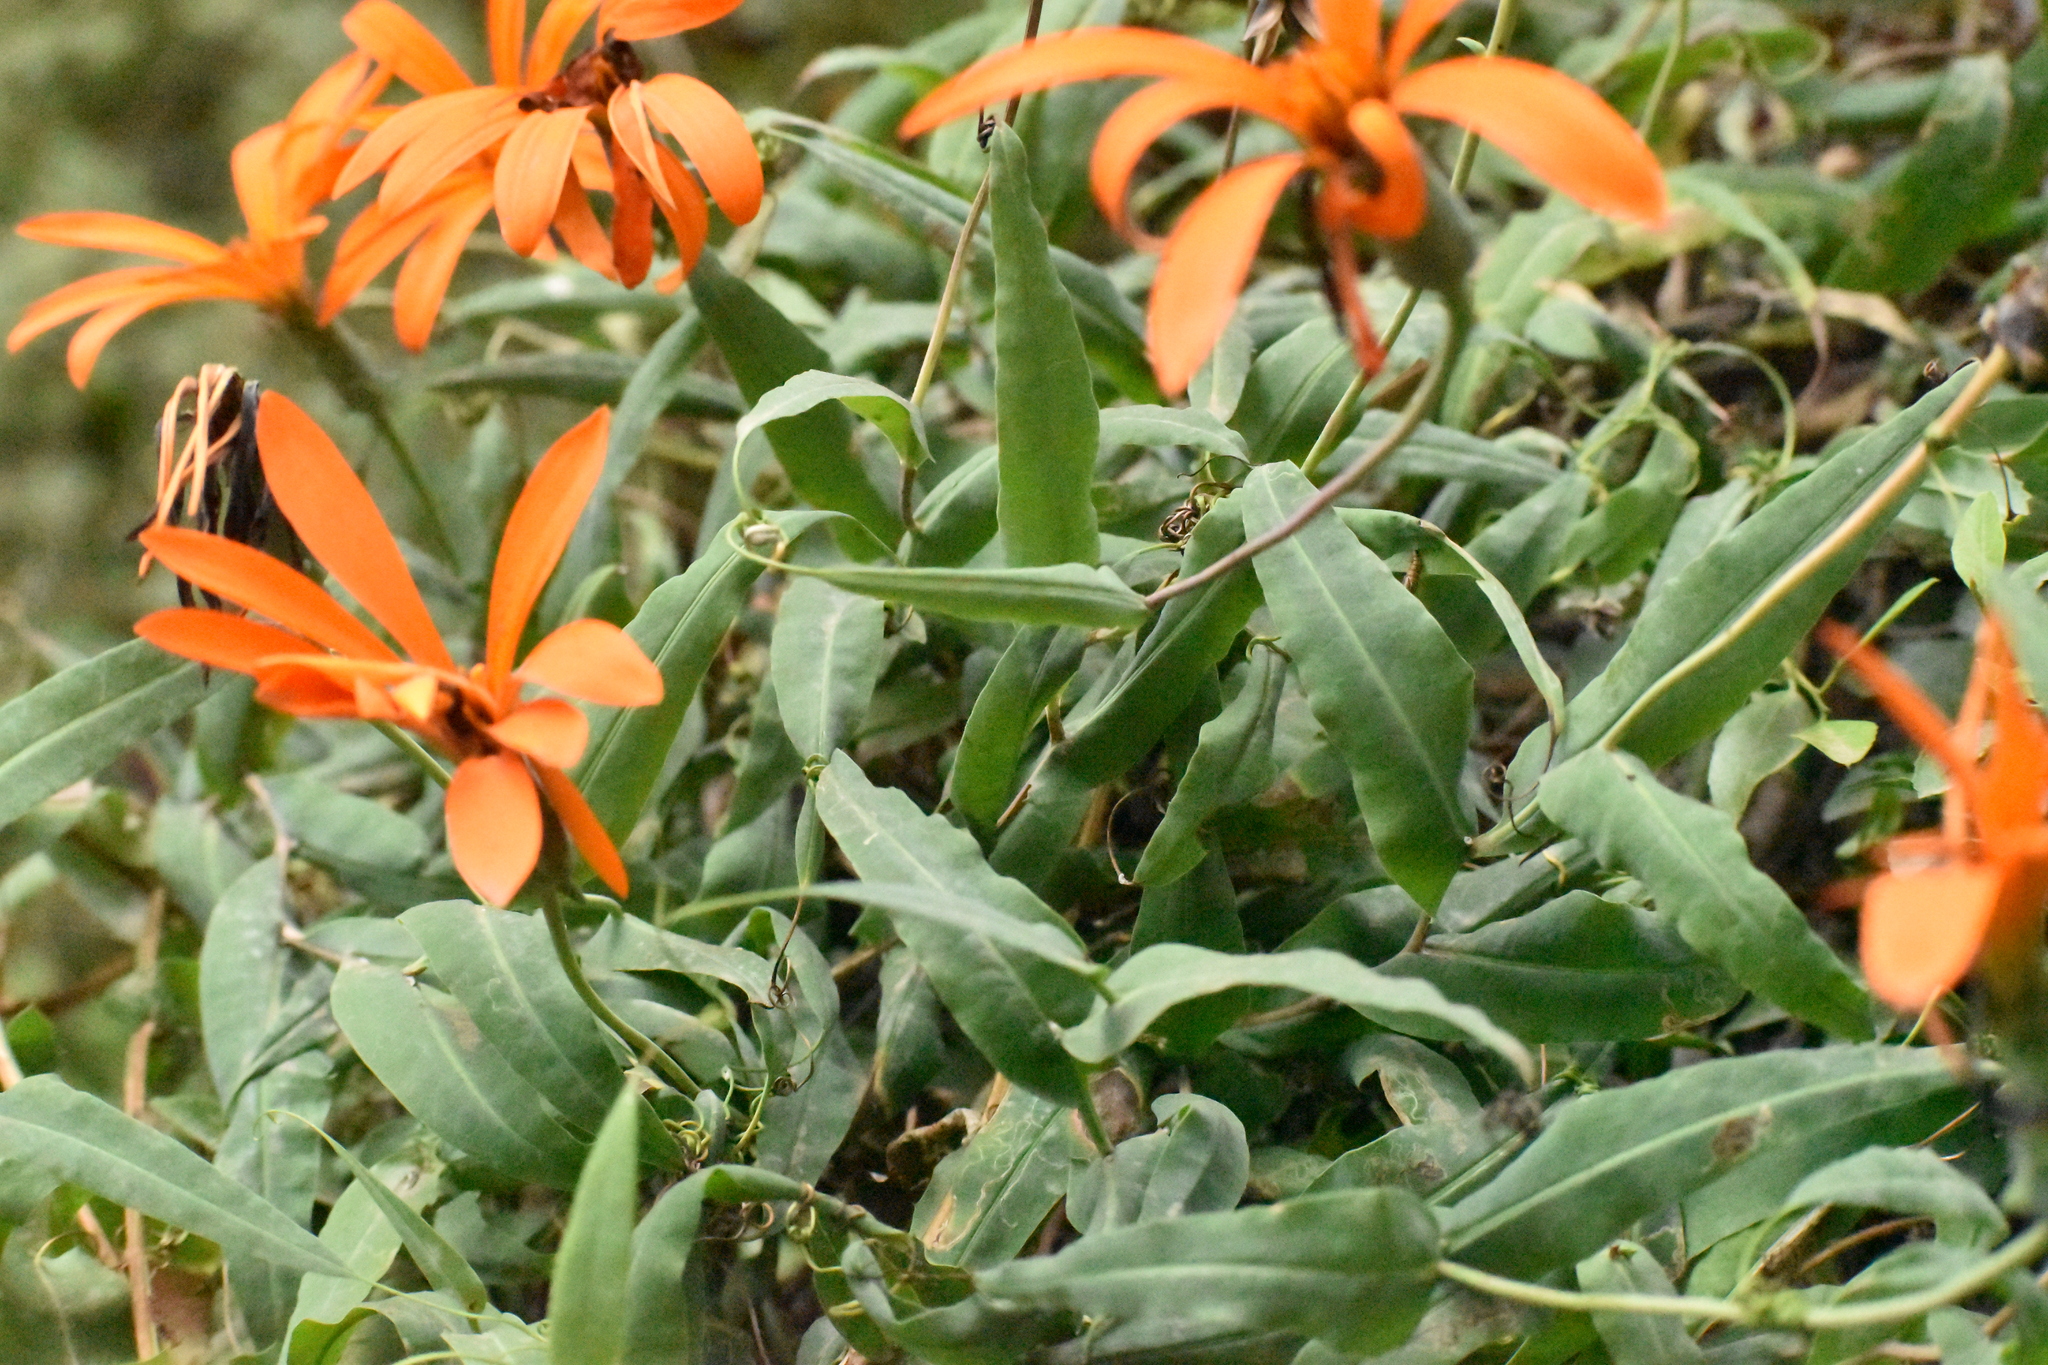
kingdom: Plantae
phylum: Tracheophyta
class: Magnoliopsida
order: Asterales
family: Asteraceae
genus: Mutisia
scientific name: Mutisia decurrens
